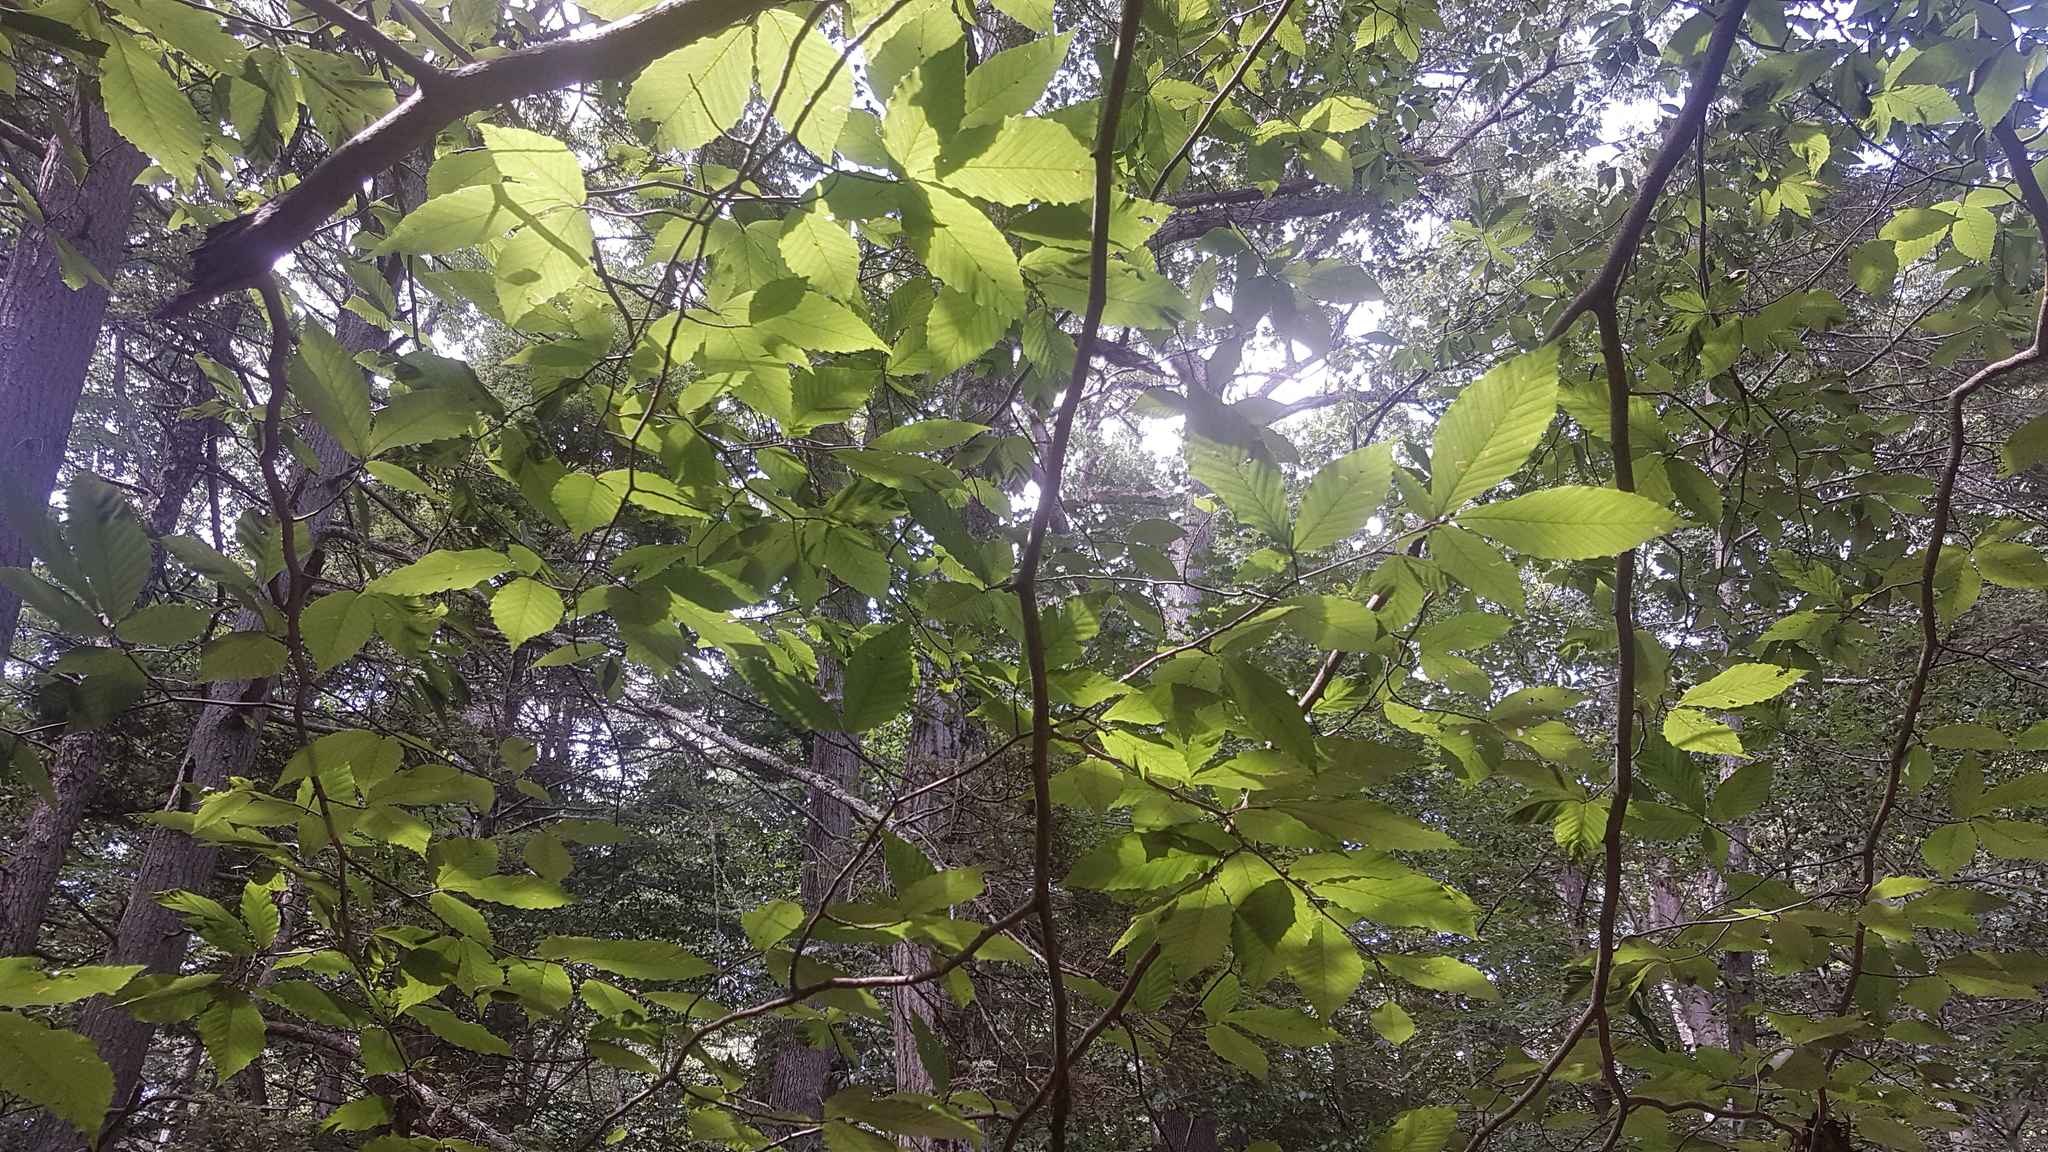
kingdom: Plantae
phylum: Tracheophyta
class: Magnoliopsida
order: Fagales
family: Fagaceae
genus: Fagus
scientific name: Fagus grandifolia
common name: American beech
